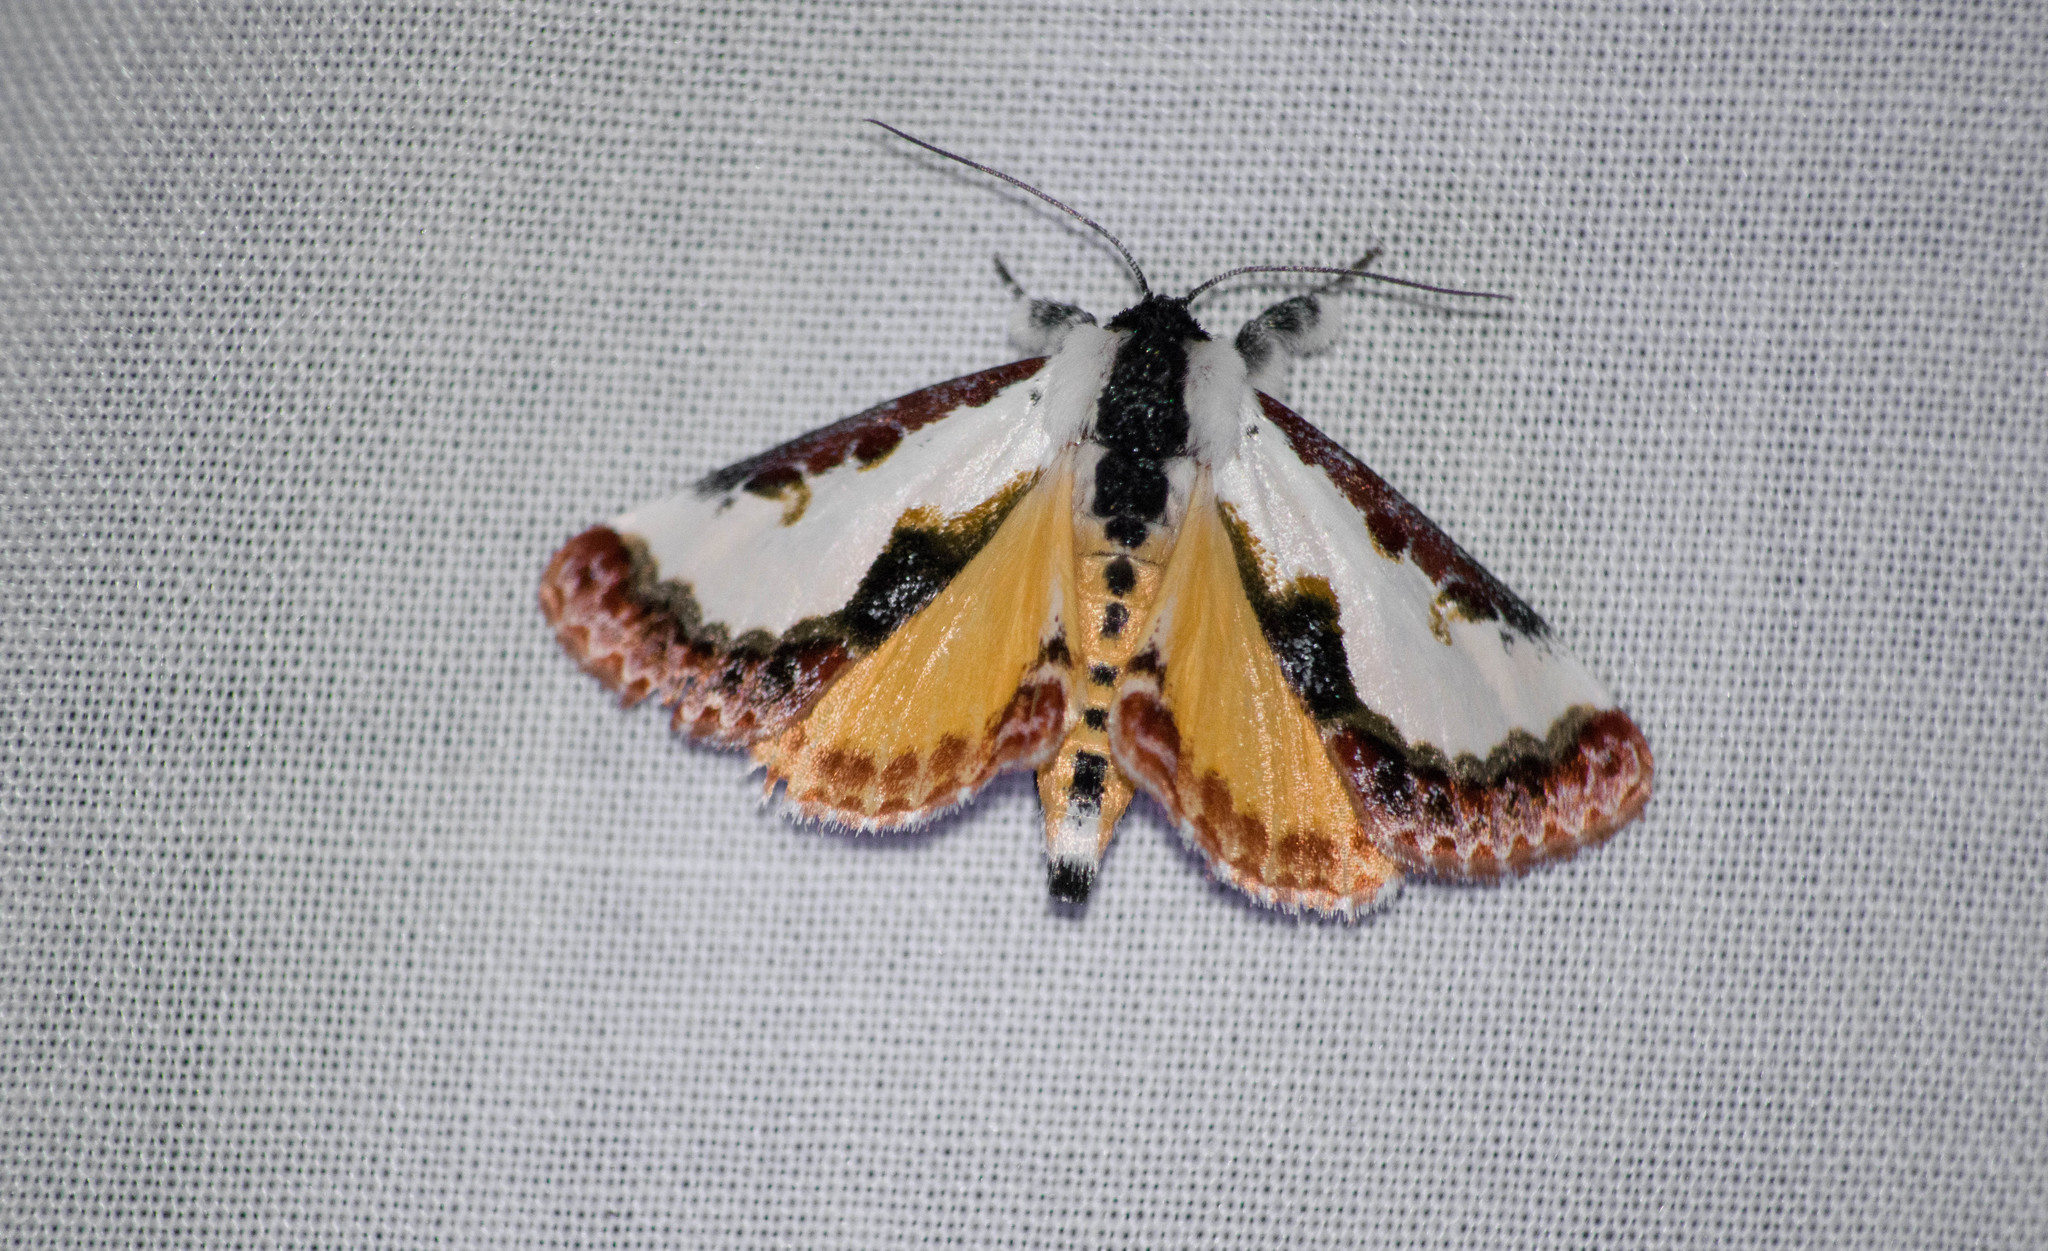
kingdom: Animalia
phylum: Arthropoda
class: Insecta
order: Lepidoptera
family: Noctuidae
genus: Eudryas
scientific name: Eudryas unio
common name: Pearly wood-nymph
